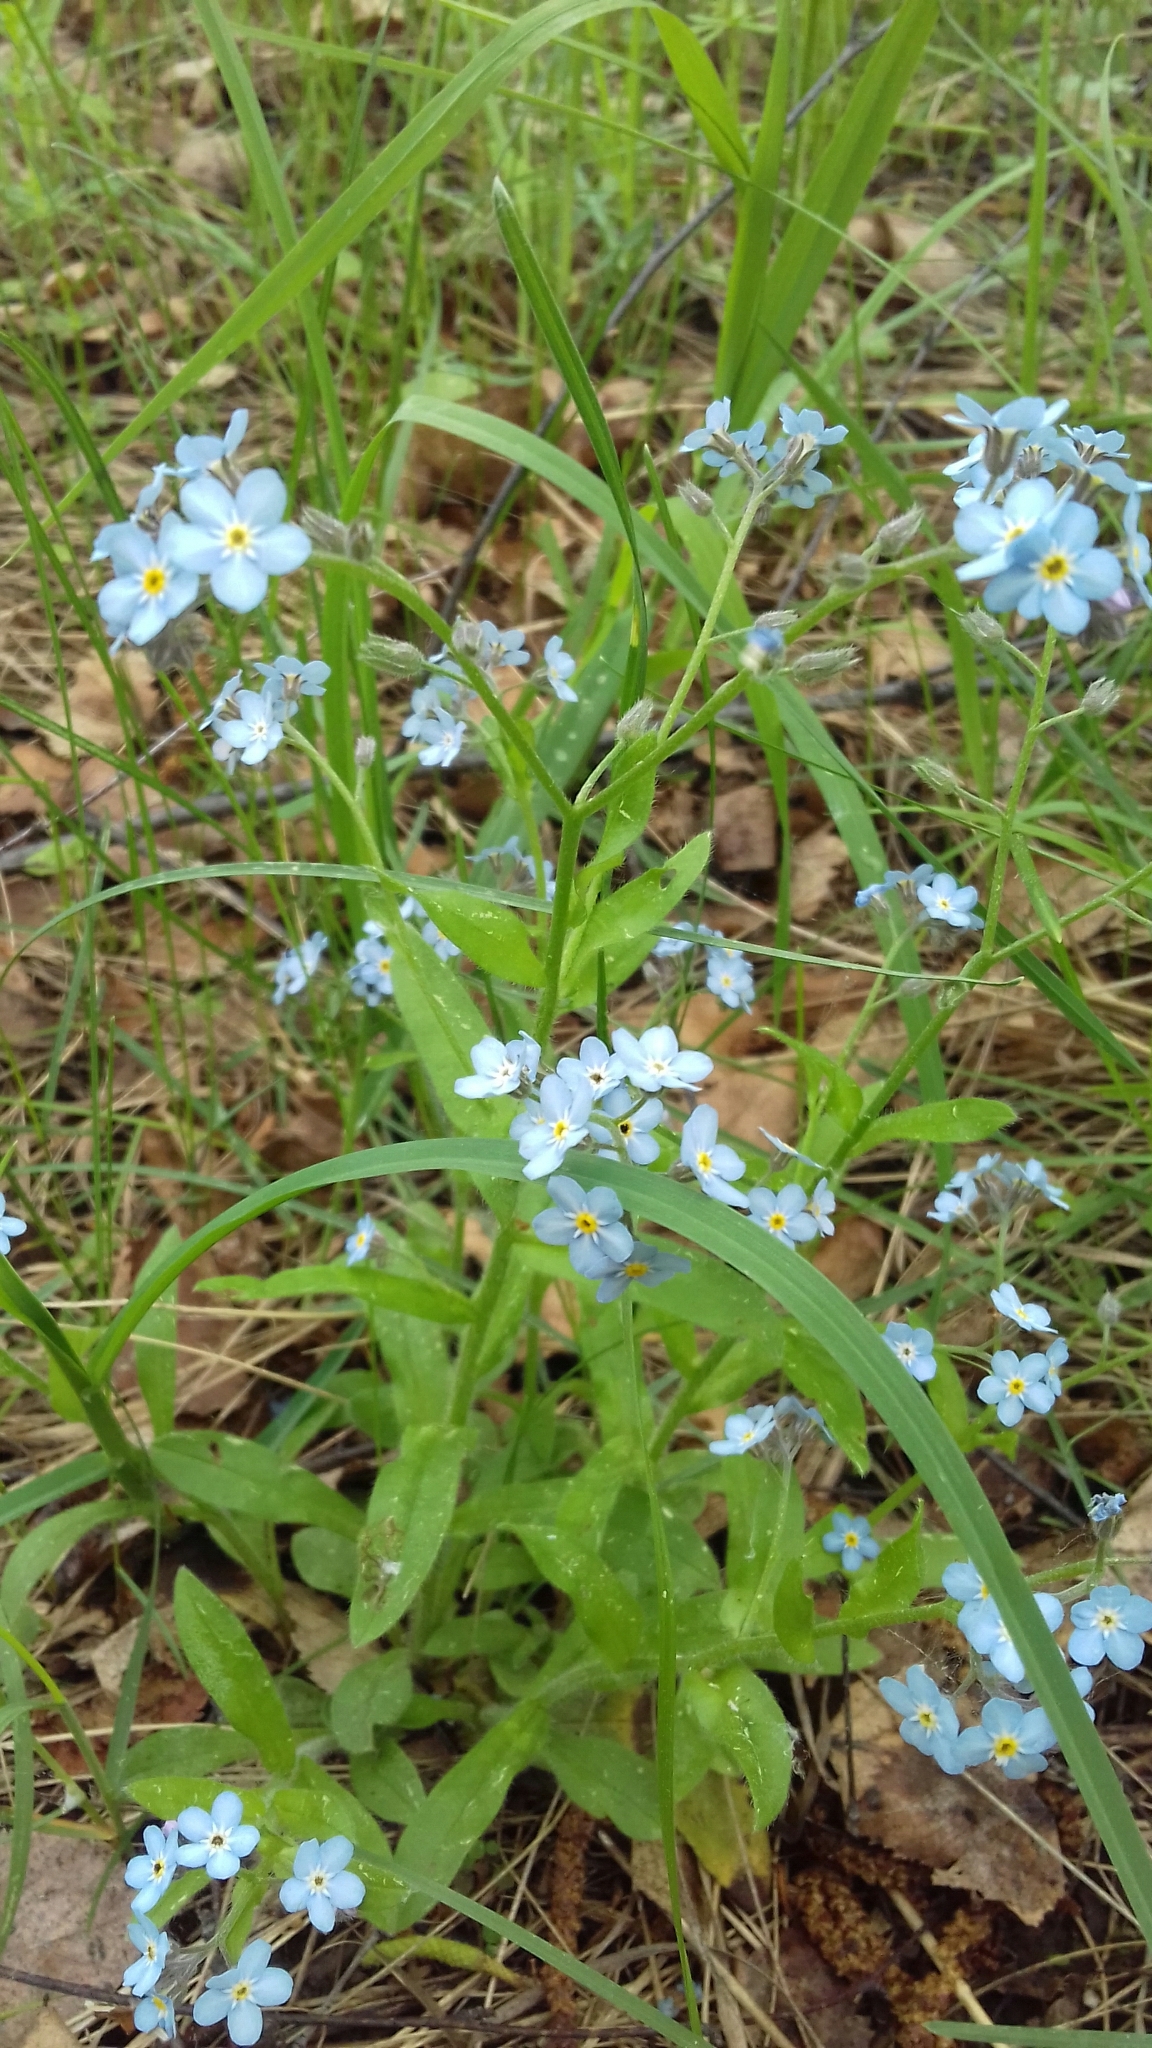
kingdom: Plantae
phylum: Tracheophyta
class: Magnoliopsida
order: Boraginales
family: Boraginaceae
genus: Myosotis
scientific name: Myosotis sylvatica
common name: Wood forget-me-not
